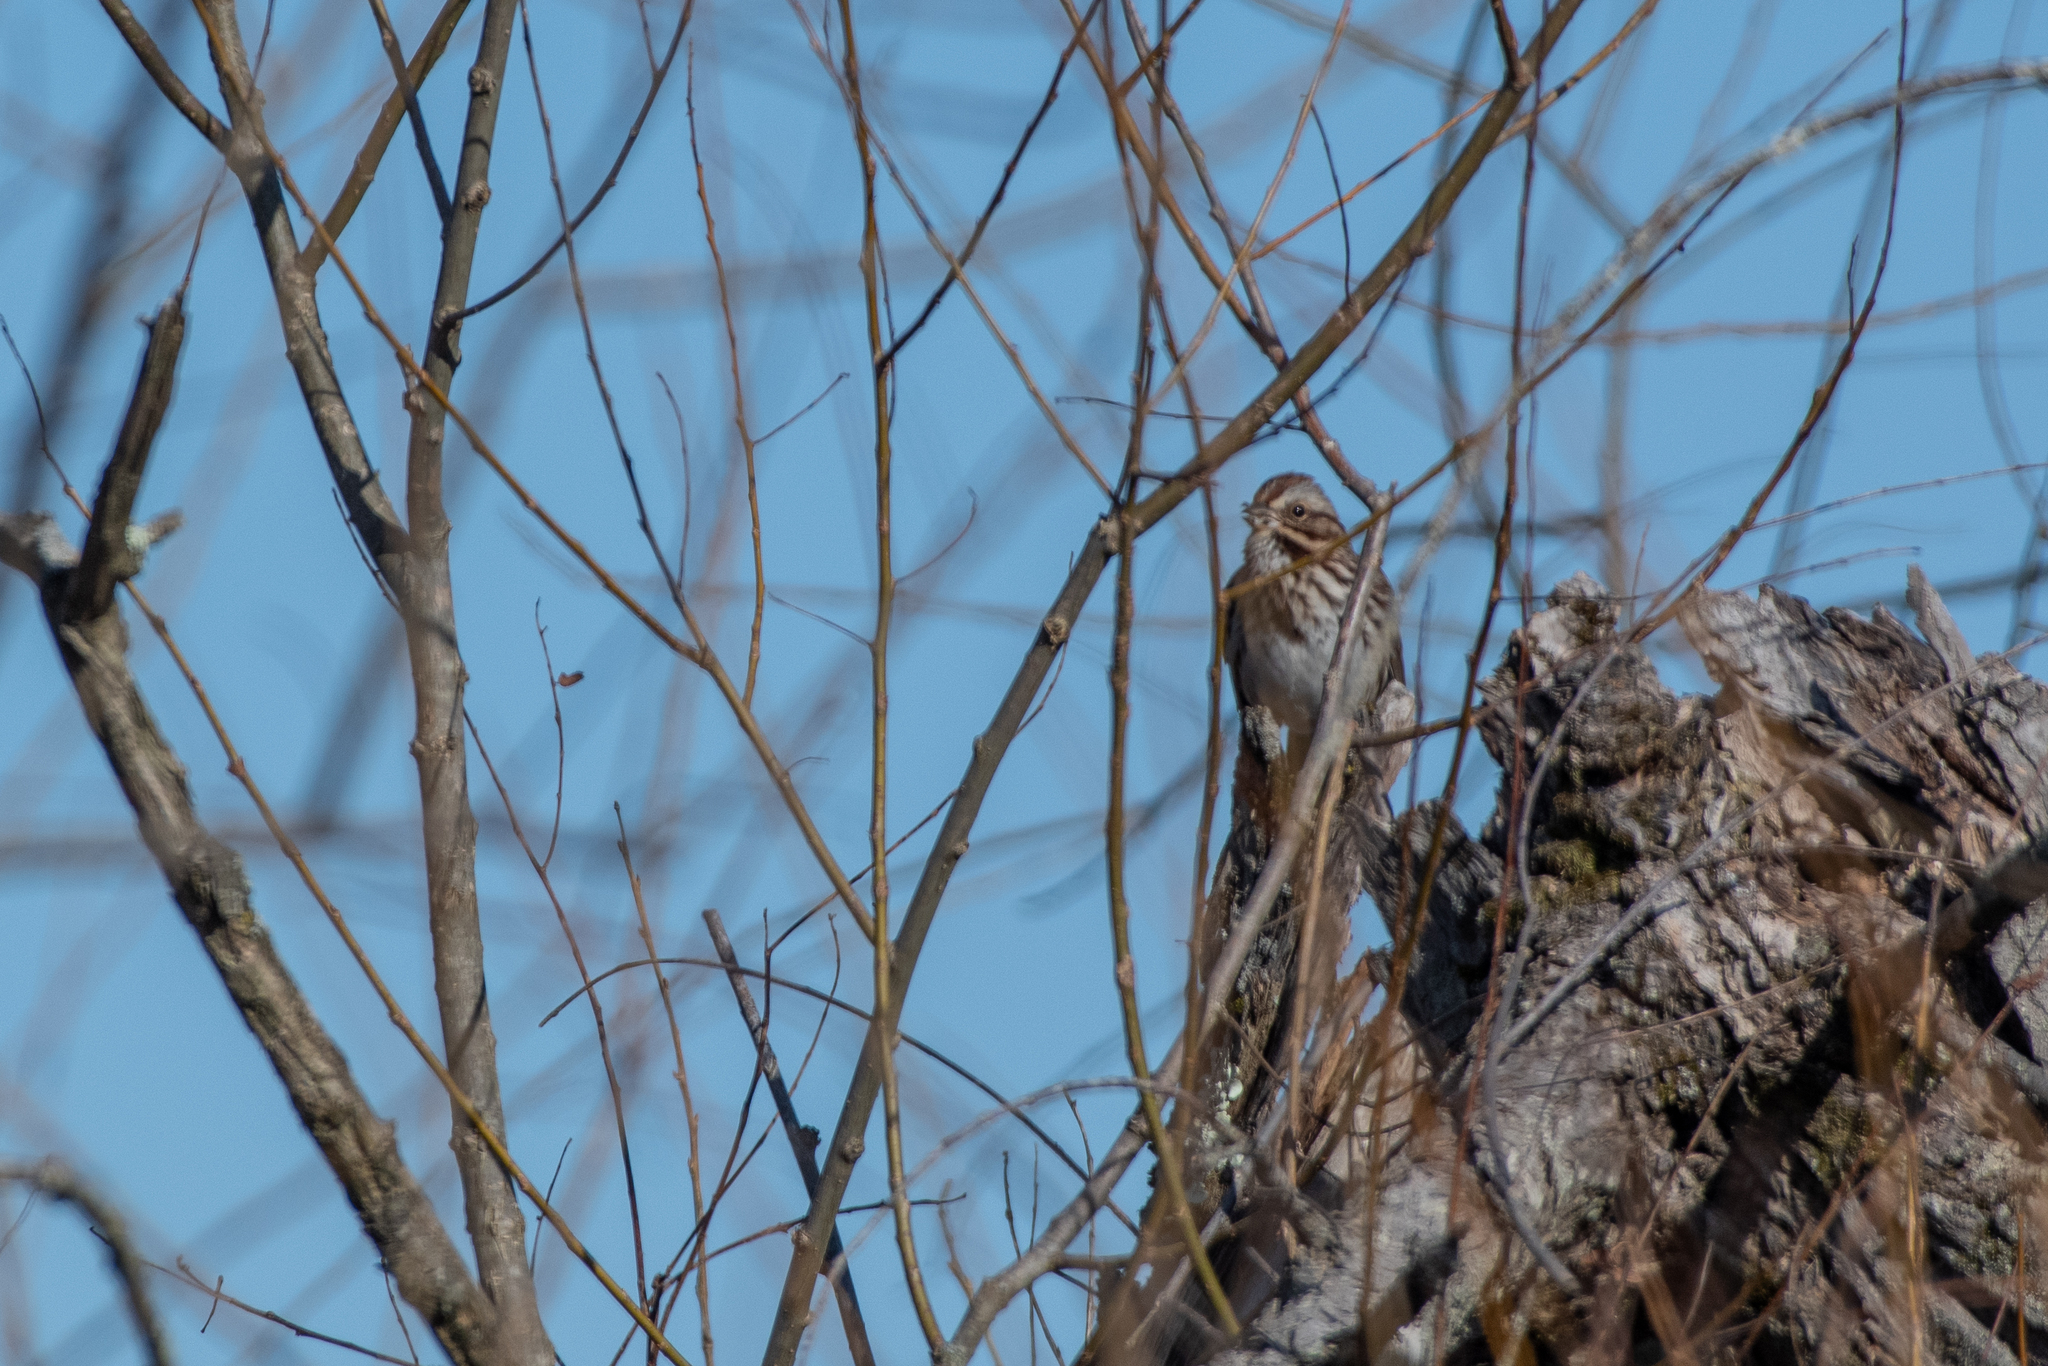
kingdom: Animalia
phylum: Chordata
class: Aves
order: Passeriformes
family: Passerellidae
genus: Melospiza
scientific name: Melospiza melodia
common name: Song sparrow
